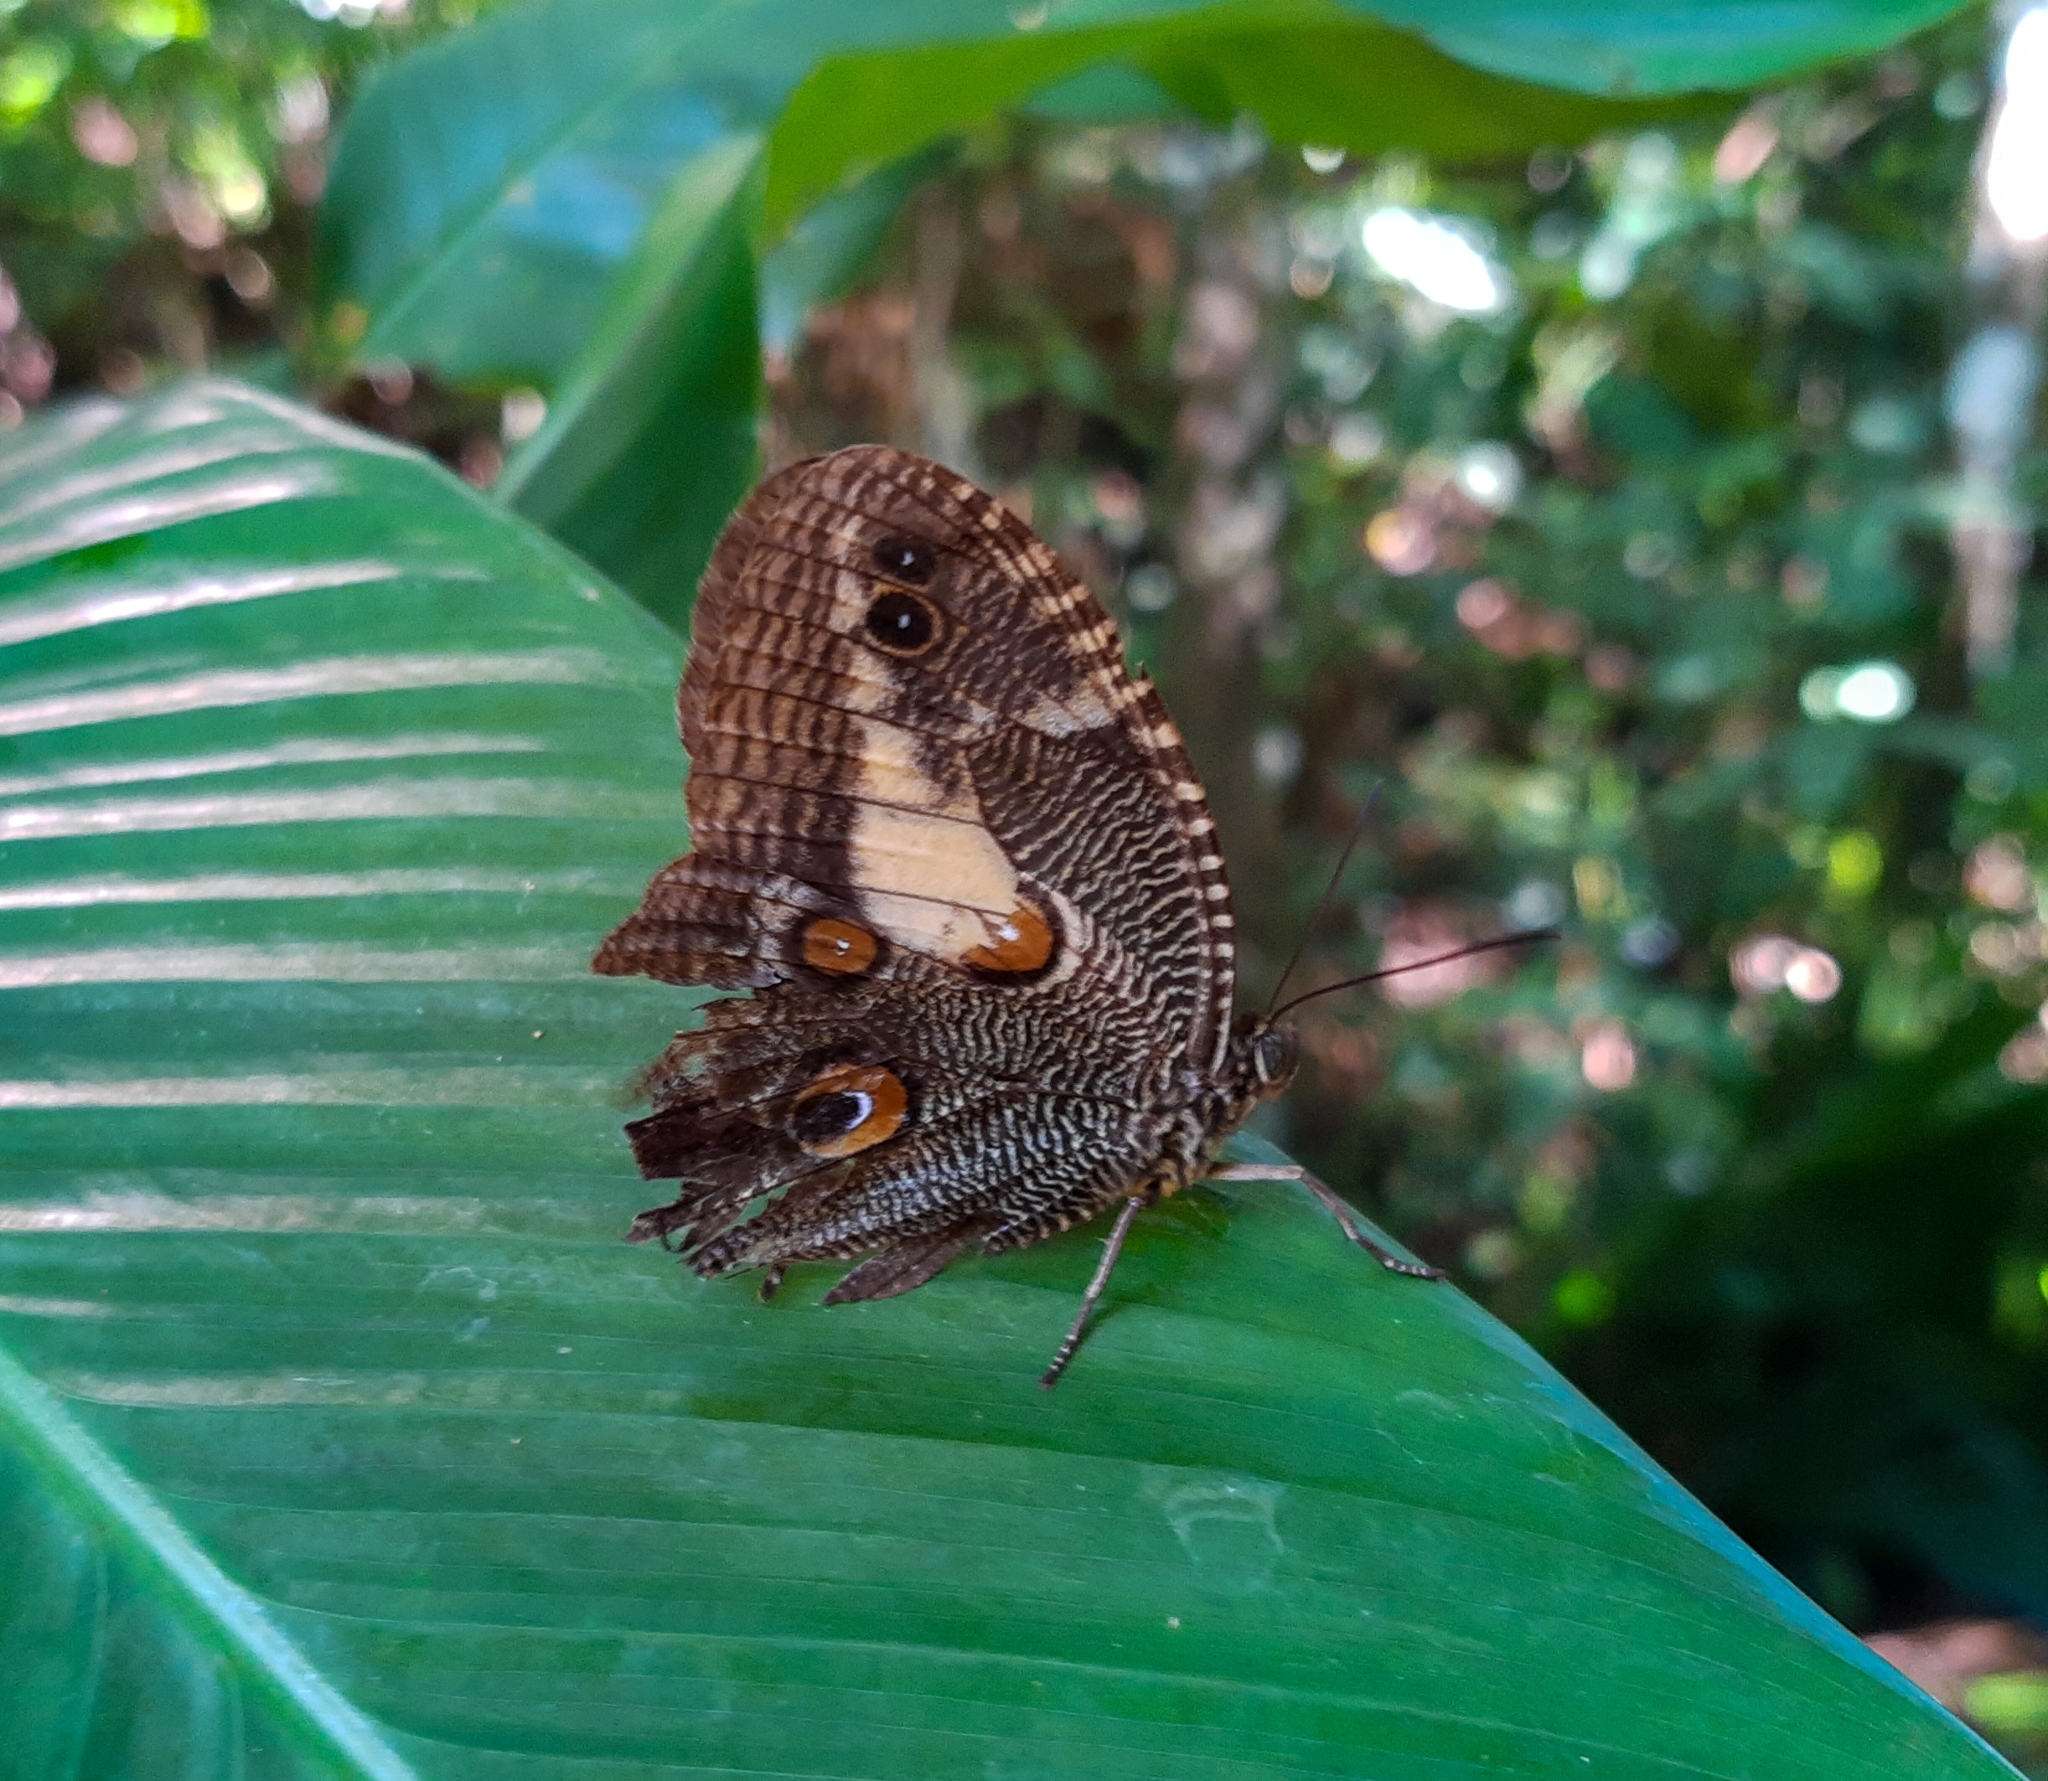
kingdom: Animalia
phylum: Arthropoda
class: Insecta
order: Lepidoptera
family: Nymphalidae
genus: Dasyophthalma
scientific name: Dasyophthalma creusa
